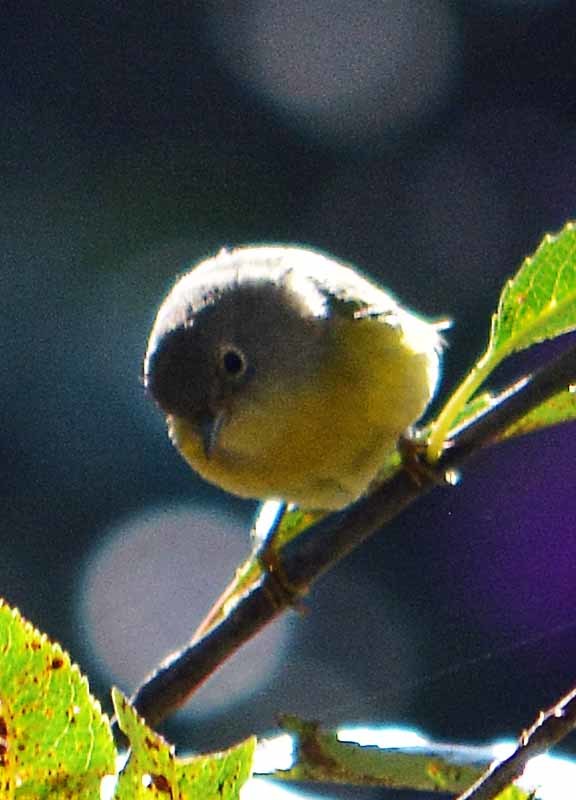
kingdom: Animalia
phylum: Chordata
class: Aves
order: Passeriformes
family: Parulidae
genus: Leiothlypis
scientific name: Leiothlypis ruficapilla
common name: Nashville warbler
